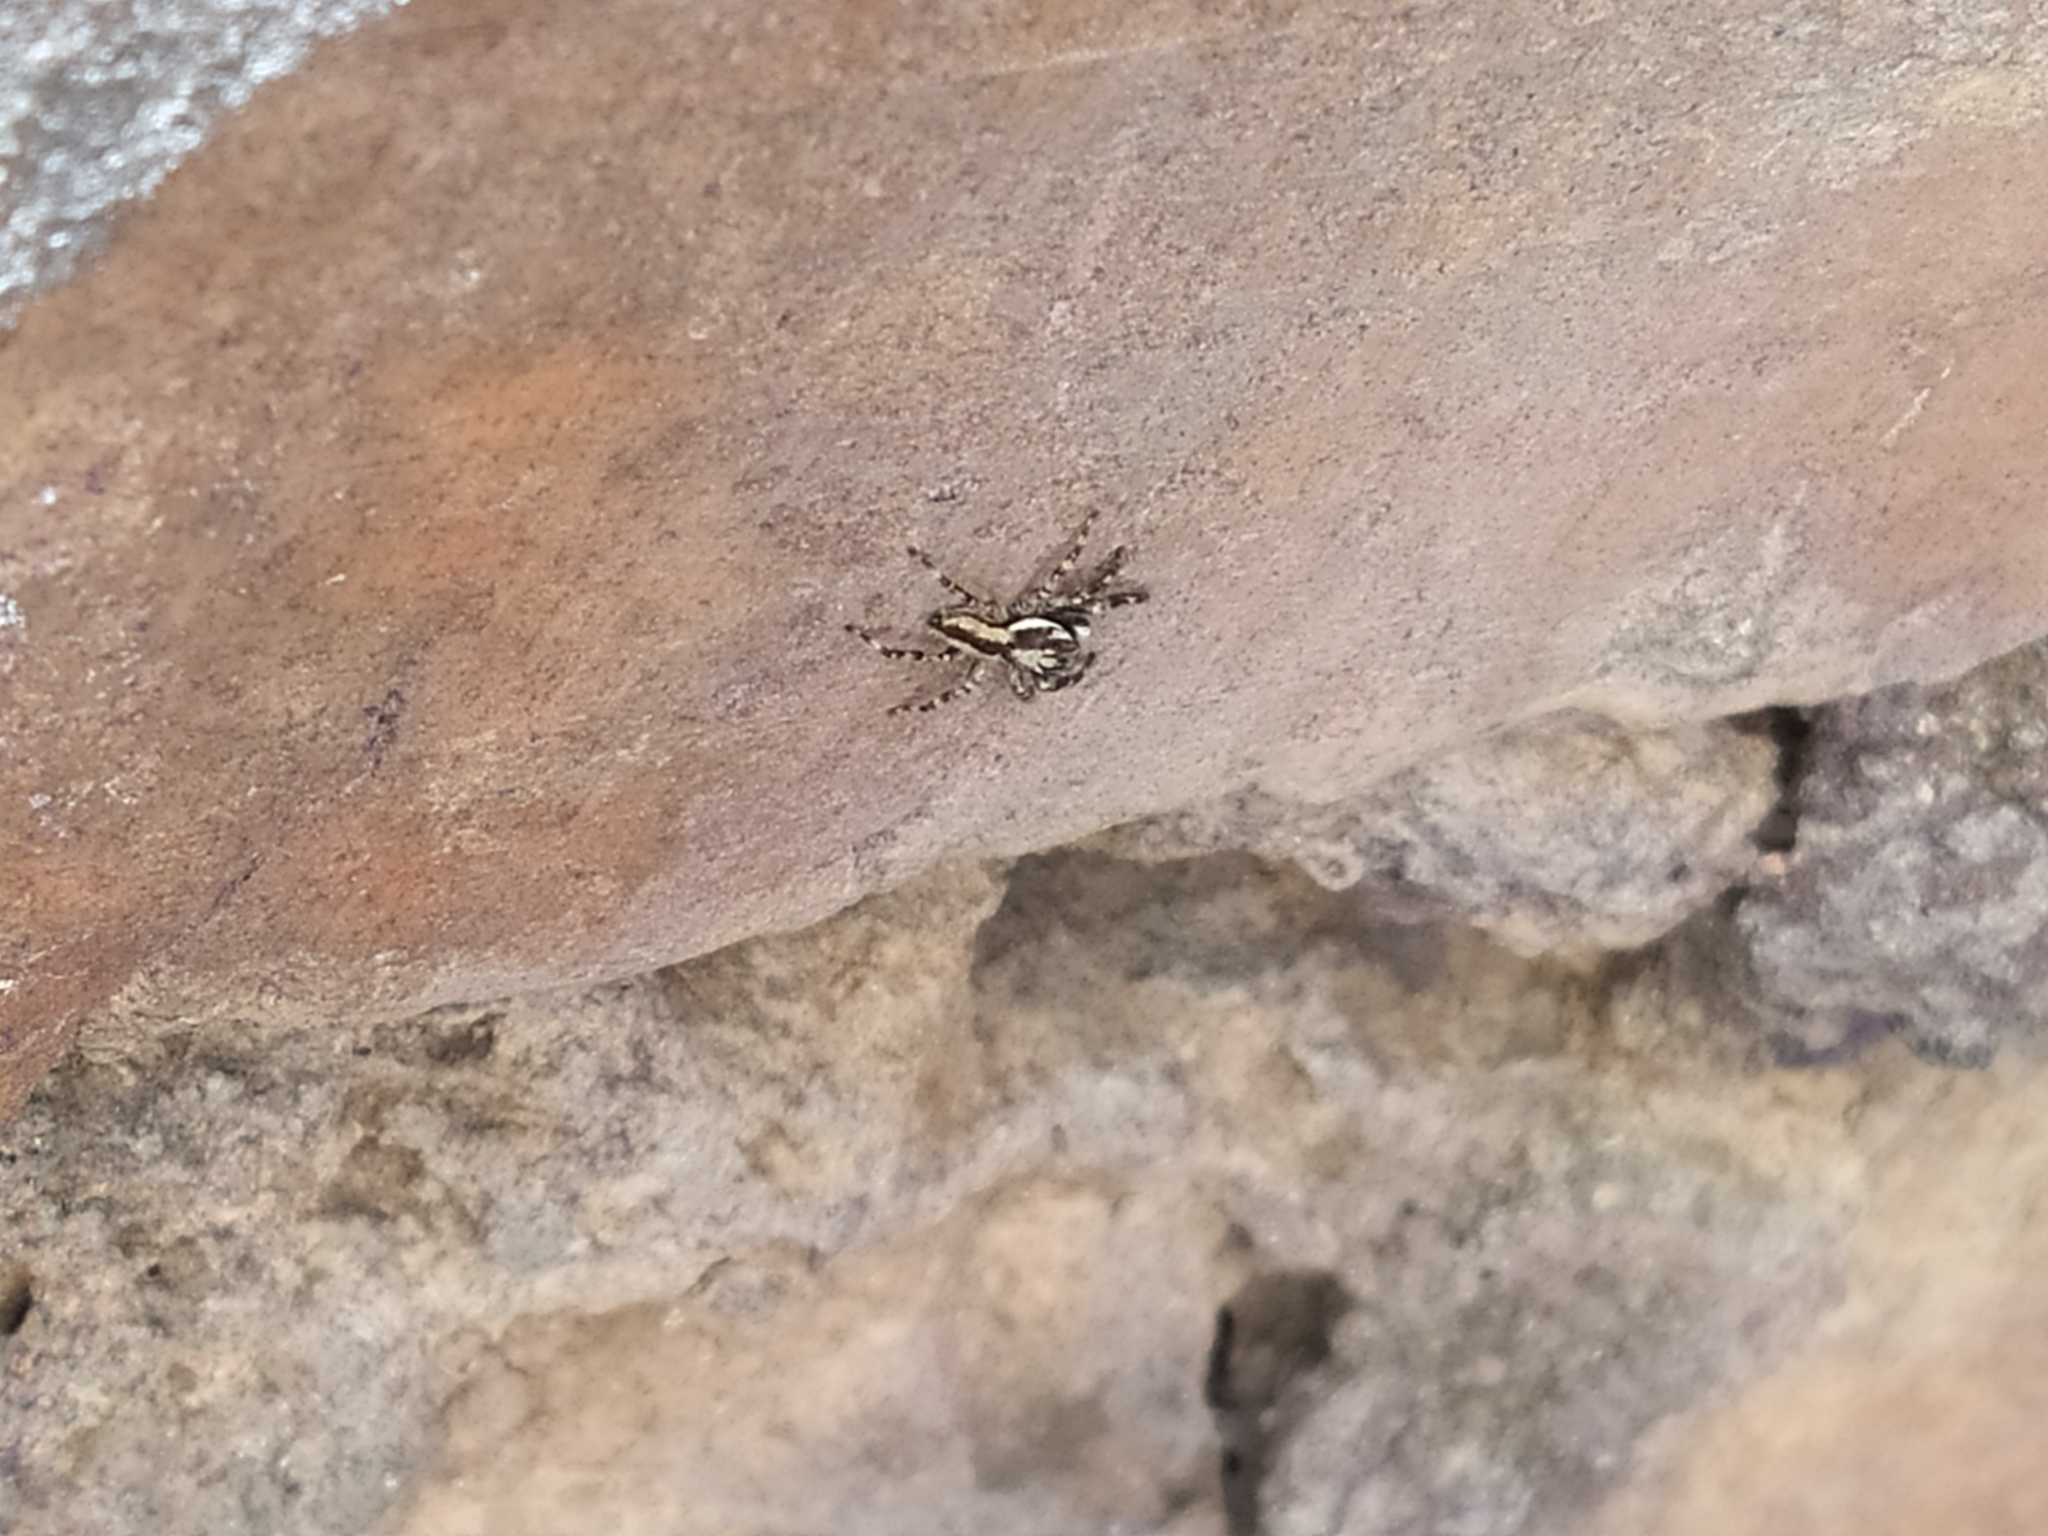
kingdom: Animalia
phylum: Arthropoda
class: Arachnida
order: Araneae
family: Salticidae
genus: Menemerus
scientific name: Menemerus bivittatus
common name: Gray wall jumper
